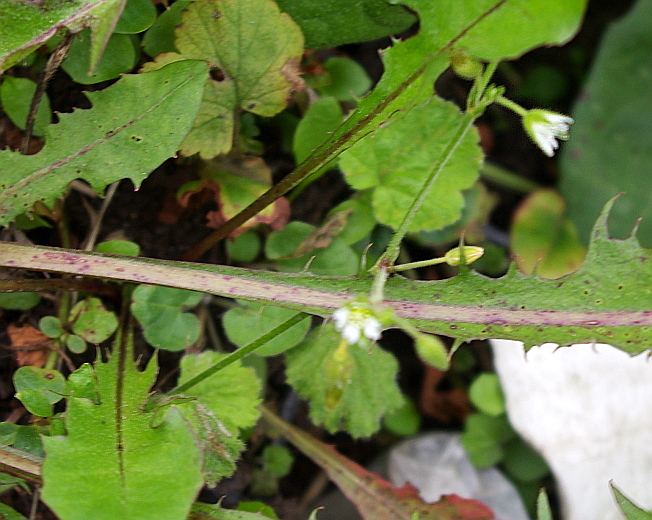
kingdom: Plantae
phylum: Tracheophyta
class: Magnoliopsida
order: Caryophyllales
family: Caryophyllaceae
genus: Stellaria
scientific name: Stellaria graminea
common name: Grass-like starwort
